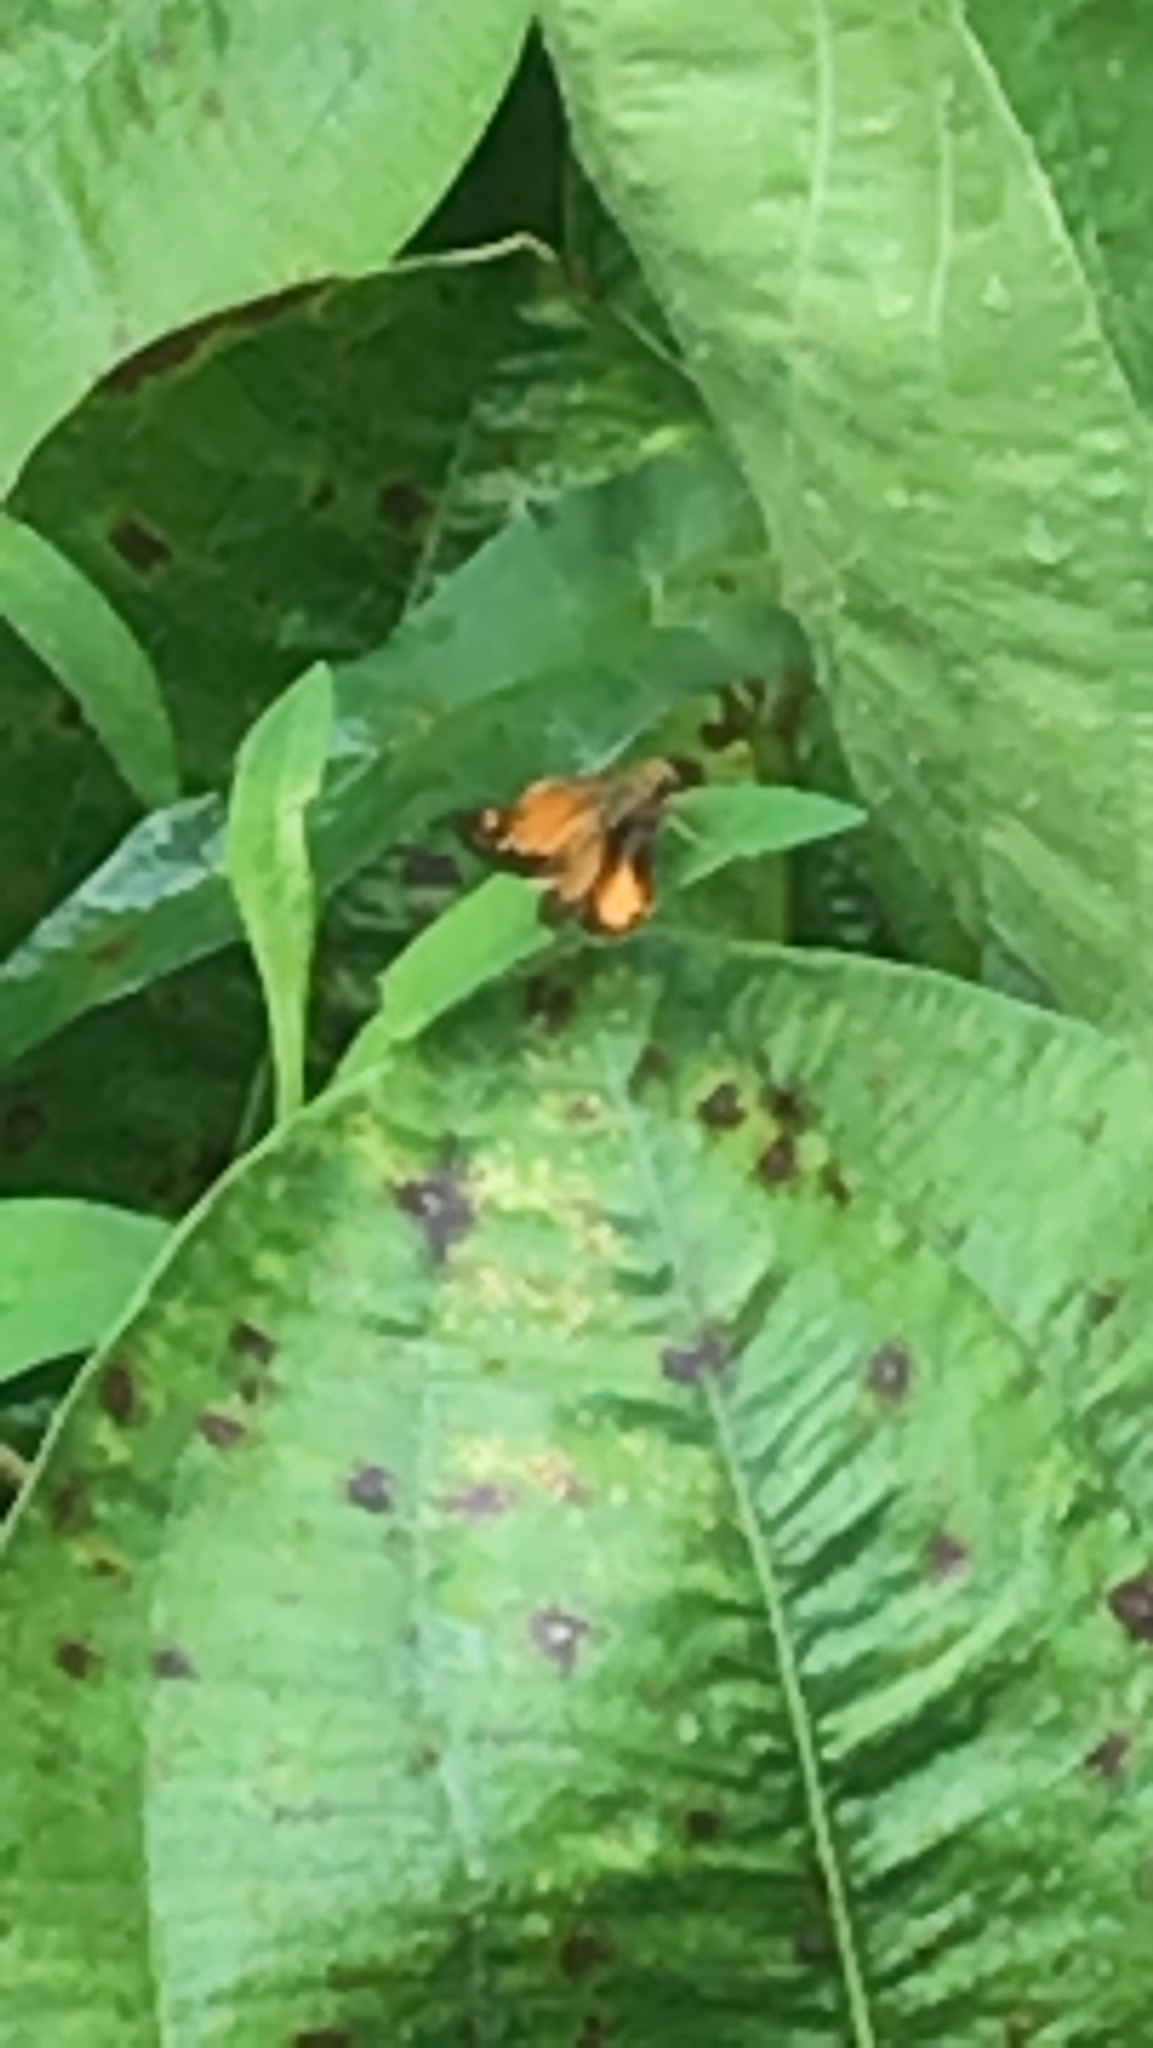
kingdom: Animalia
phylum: Arthropoda
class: Insecta
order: Lepidoptera
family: Hesperiidae
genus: Lon
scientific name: Lon zabulon
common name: Zabulon skipper
